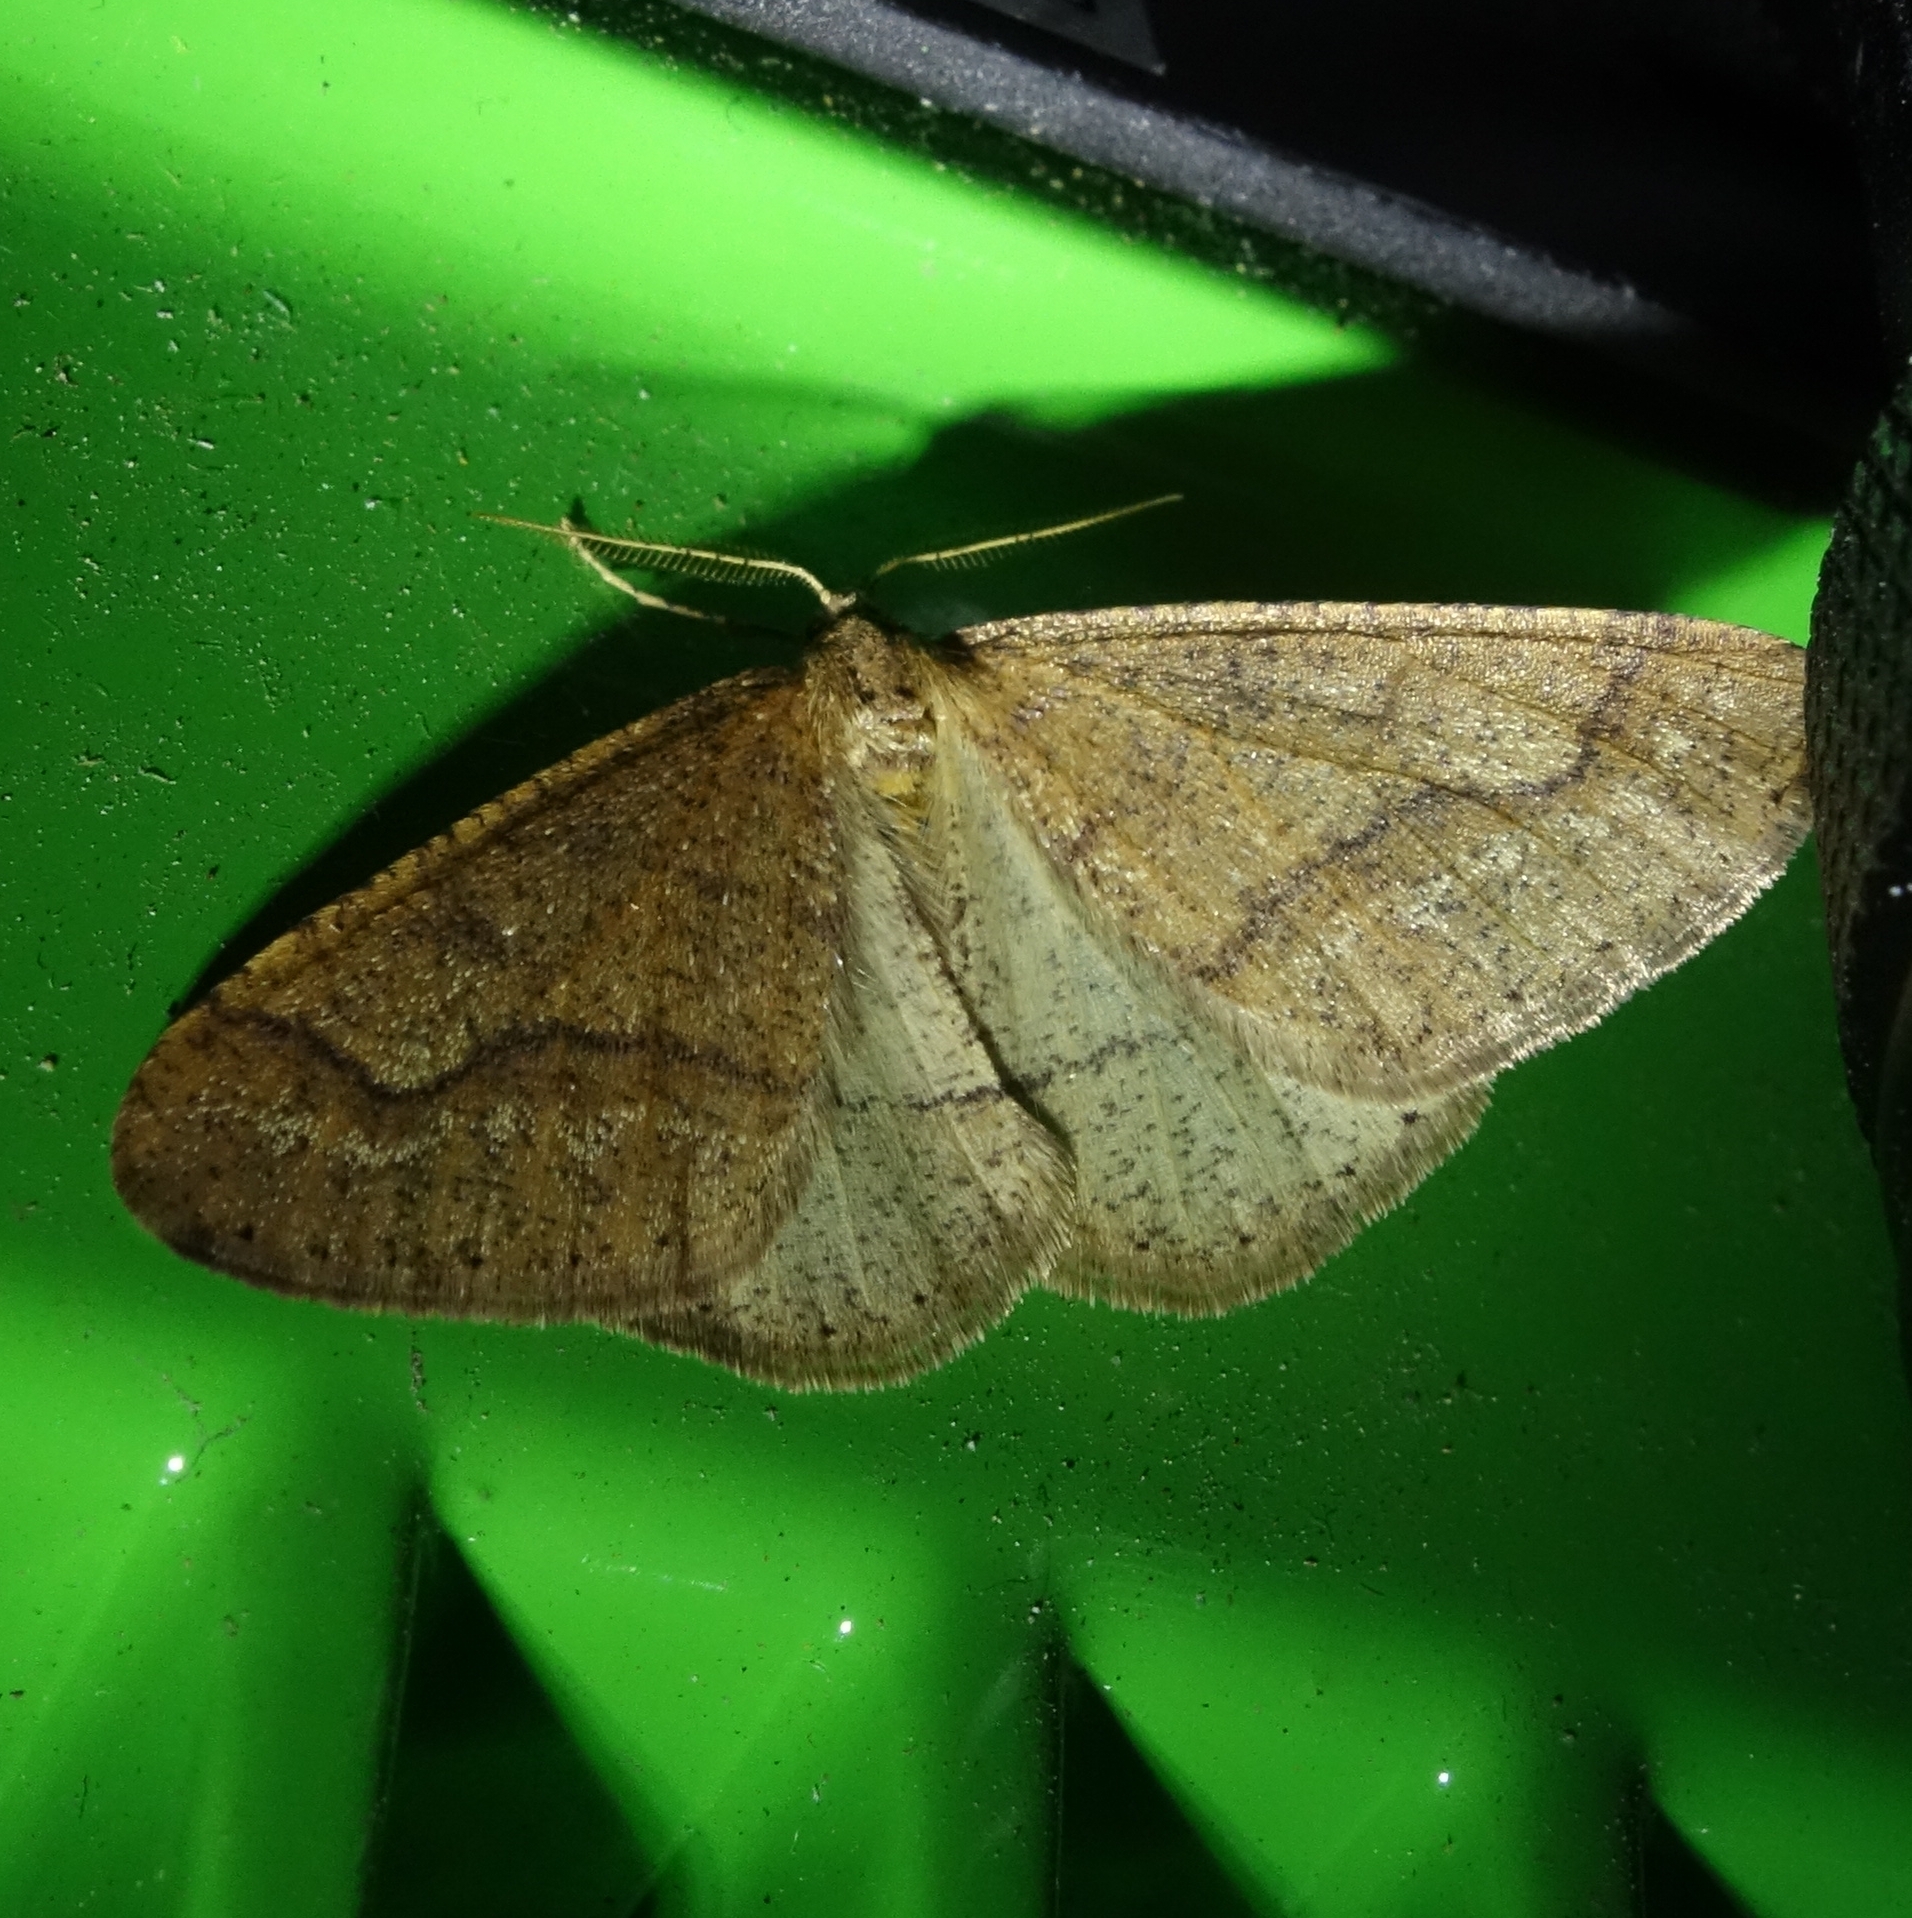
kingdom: Animalia
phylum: Arthropoda
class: Insecta
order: Lepidoptera
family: Geometridae
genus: Agriopis
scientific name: Agriopis marginaria
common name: Dotted border
